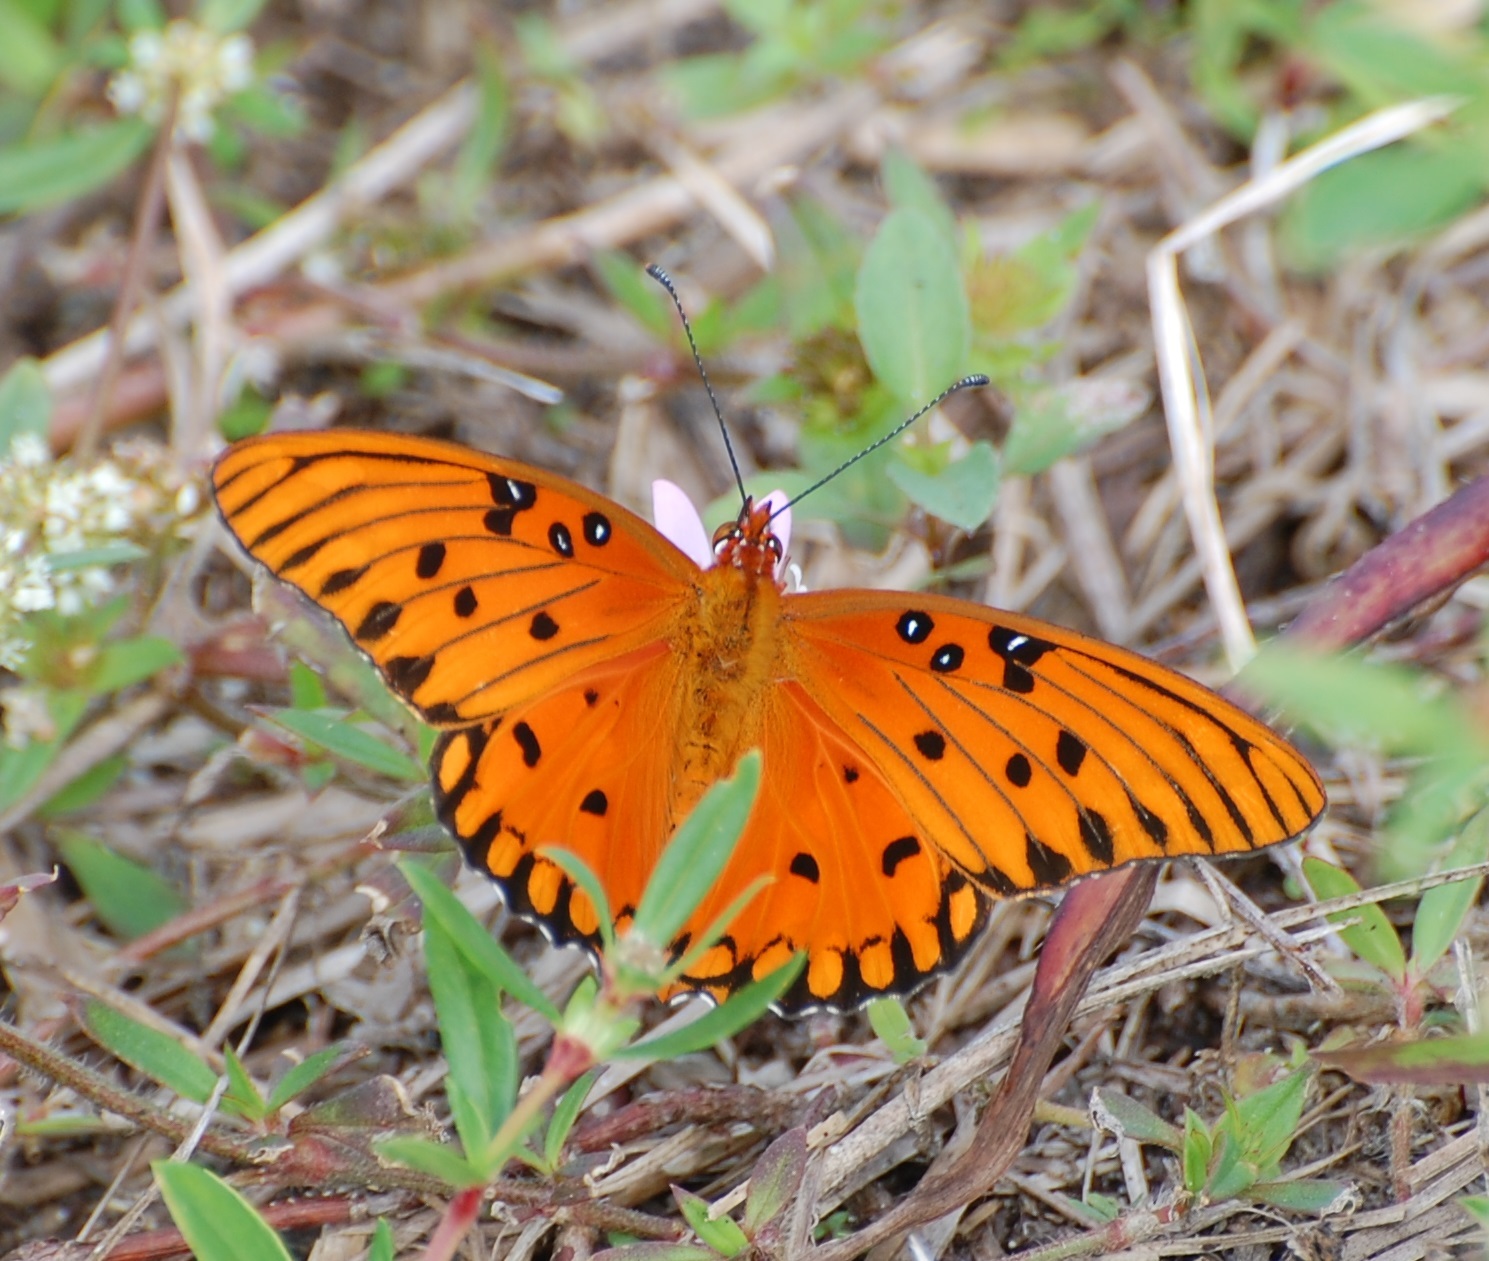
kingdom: Animalia
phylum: Arthropoda
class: Insecta
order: Lepidoptera
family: Nymphalidae
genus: Dione
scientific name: Dione vanillae
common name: Gulf fritillary
